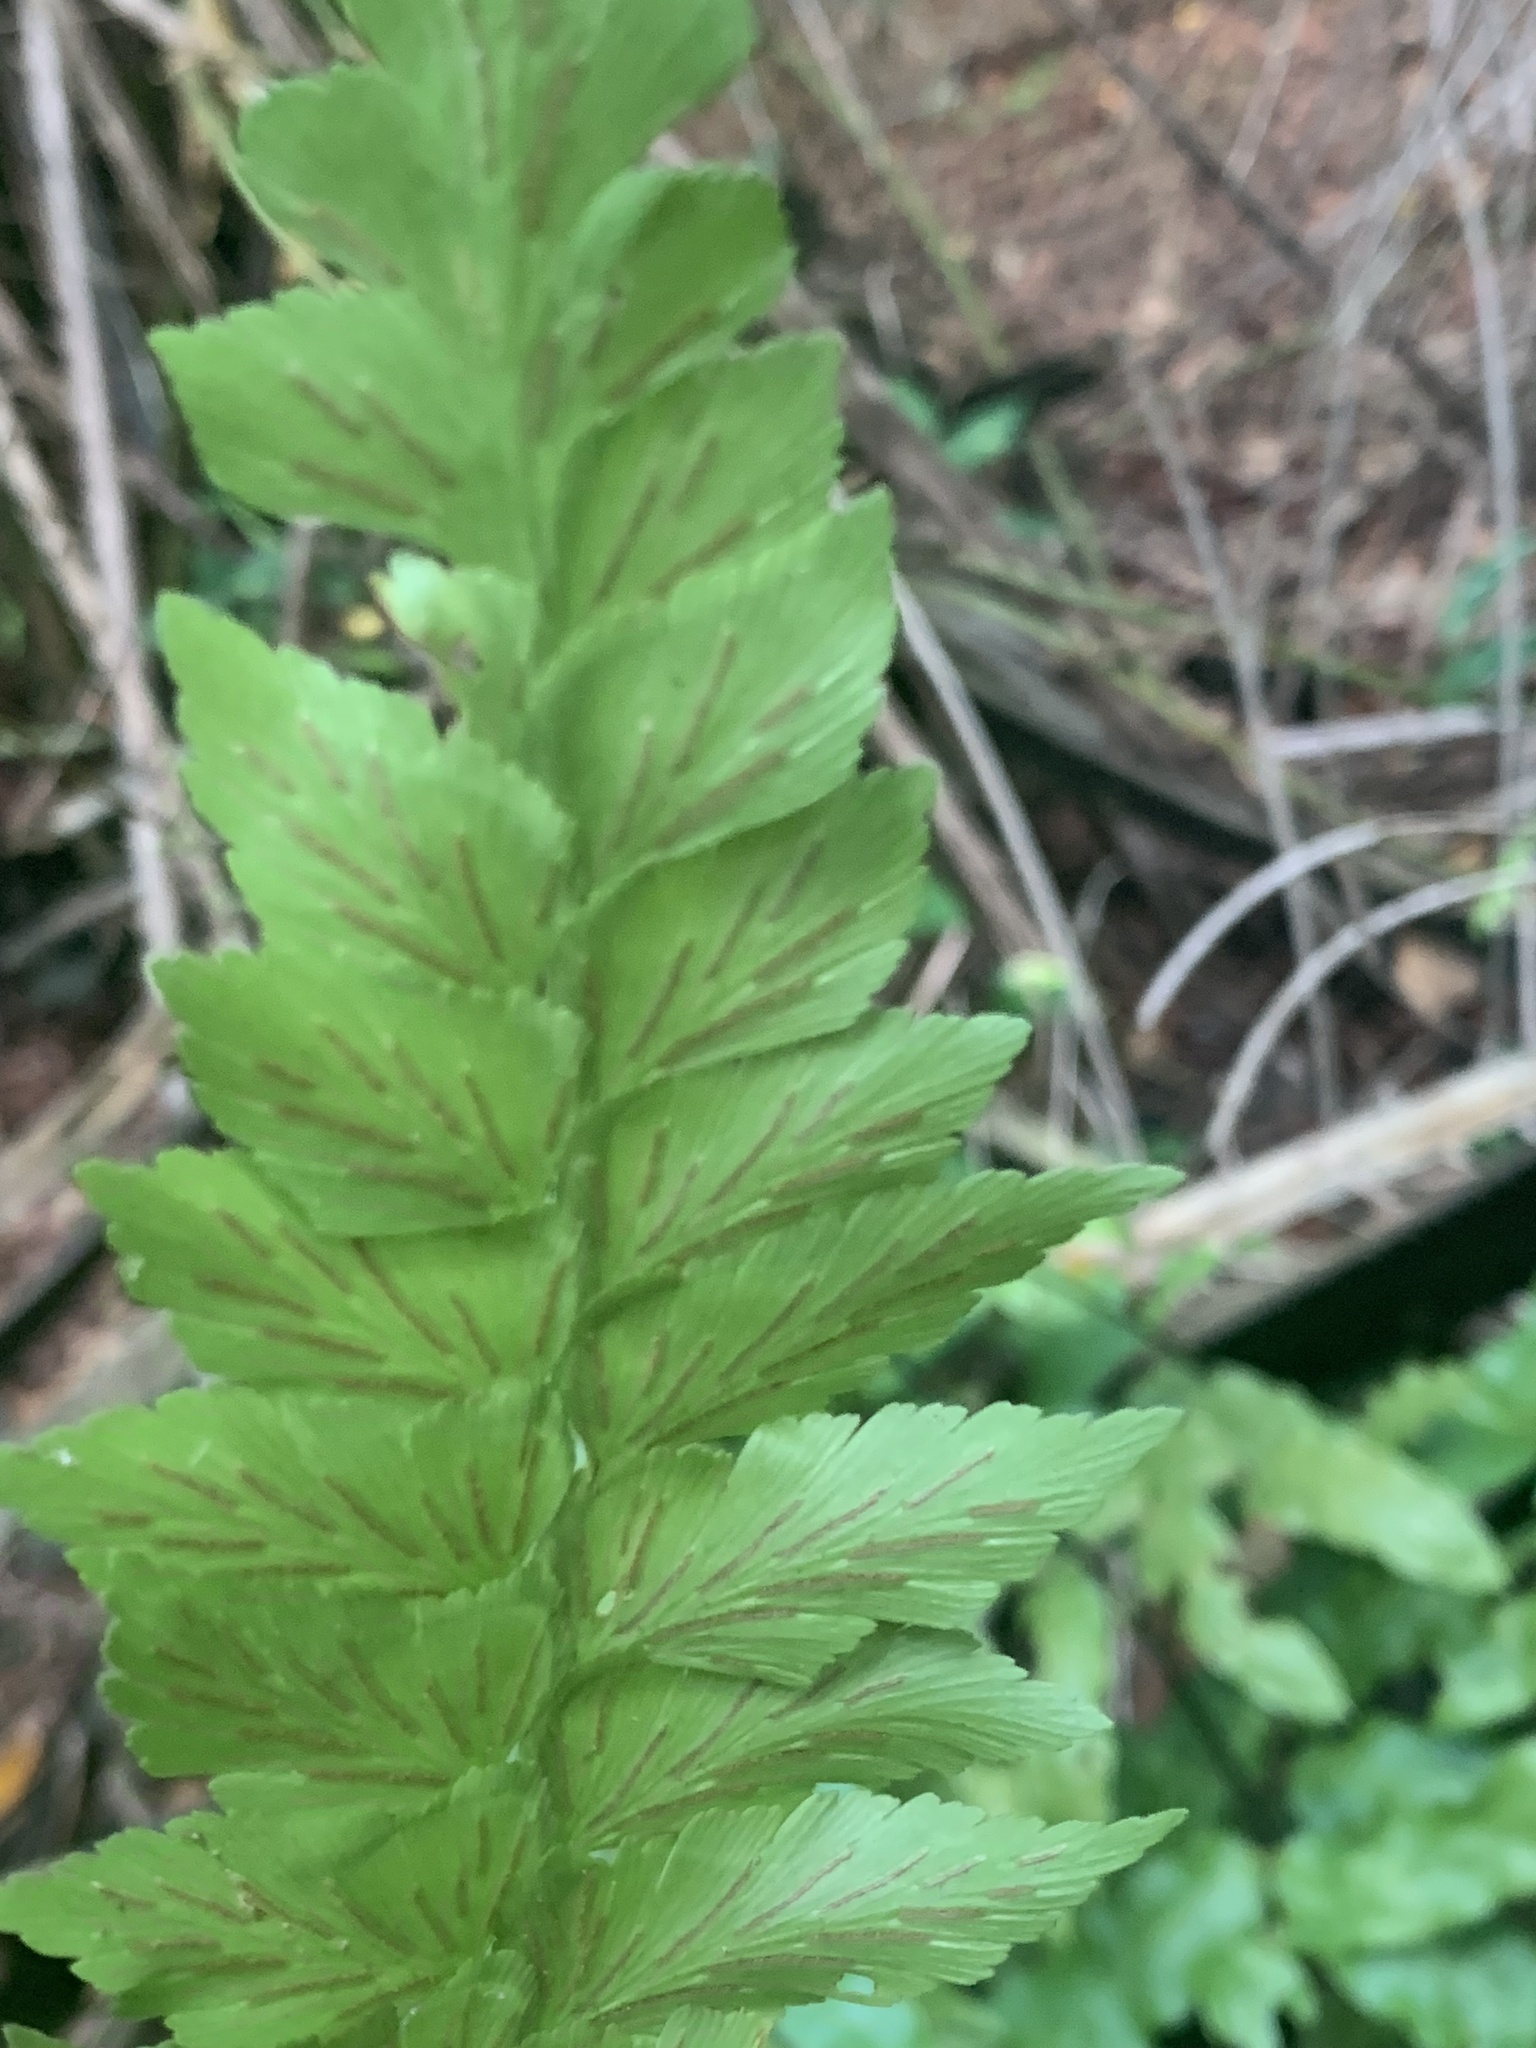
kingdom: Plantae
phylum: Tracheophyta
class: Polypodiopsida
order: Polypodiales
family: Aspleniaceae
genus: Asplenium
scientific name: Asplenium nitidum
